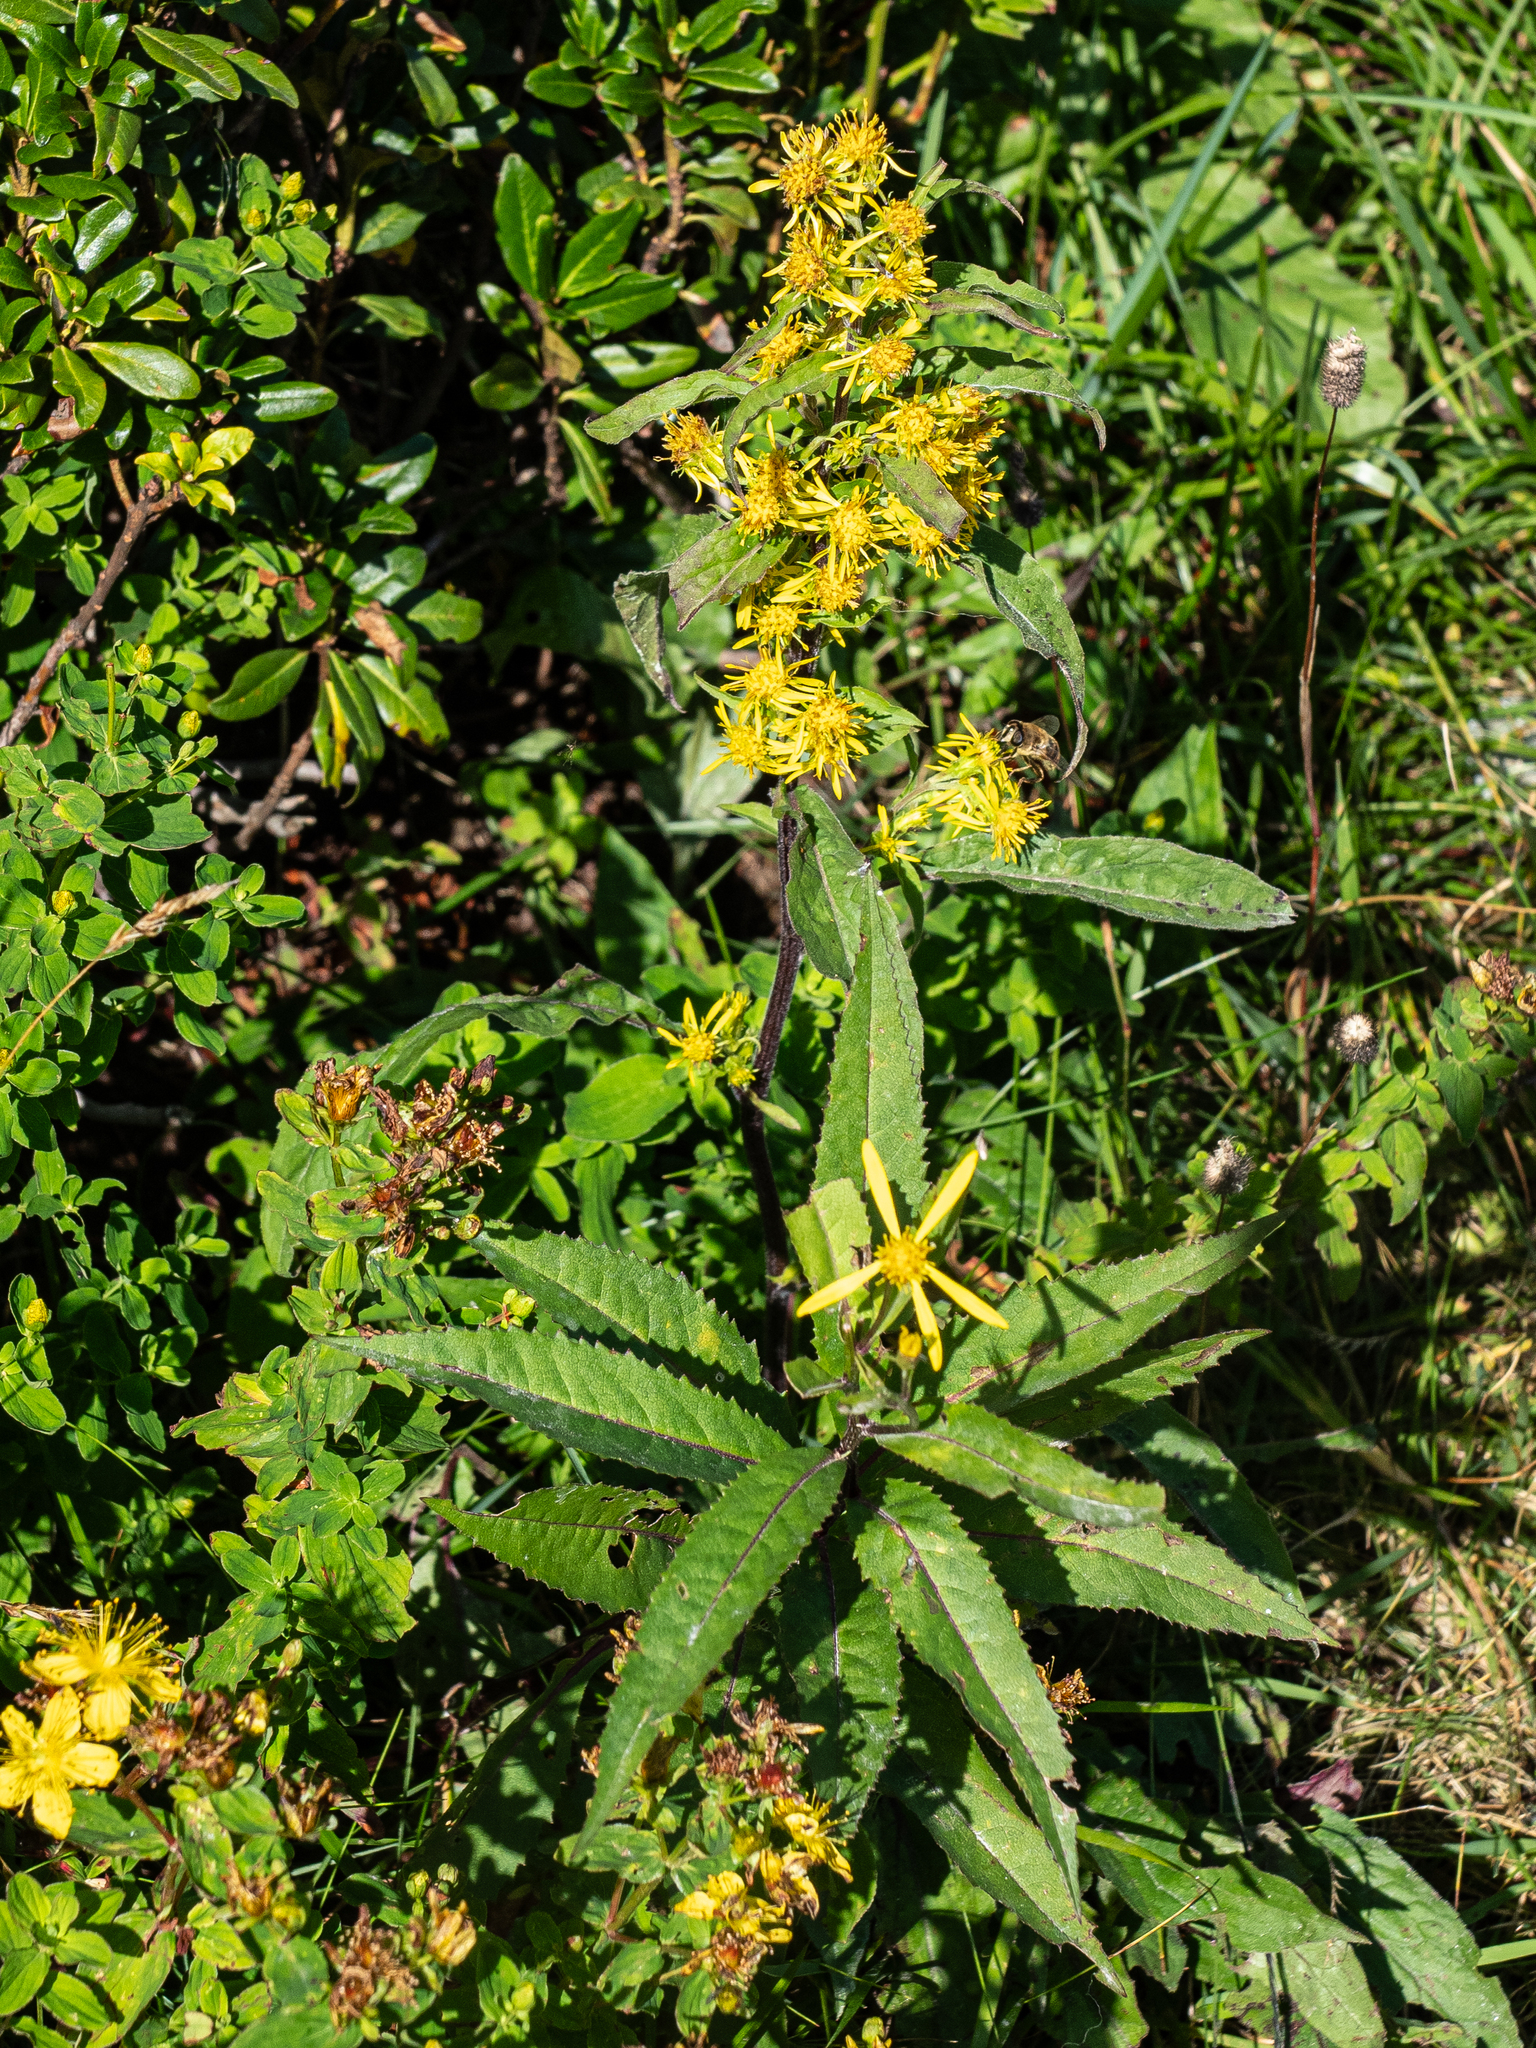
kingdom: Plantae
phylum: Tracheophyta
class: Magnoliopsida
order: Asterales
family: Asteraceae
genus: Solidago
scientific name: Solidago virgaurea
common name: Goldenrod
